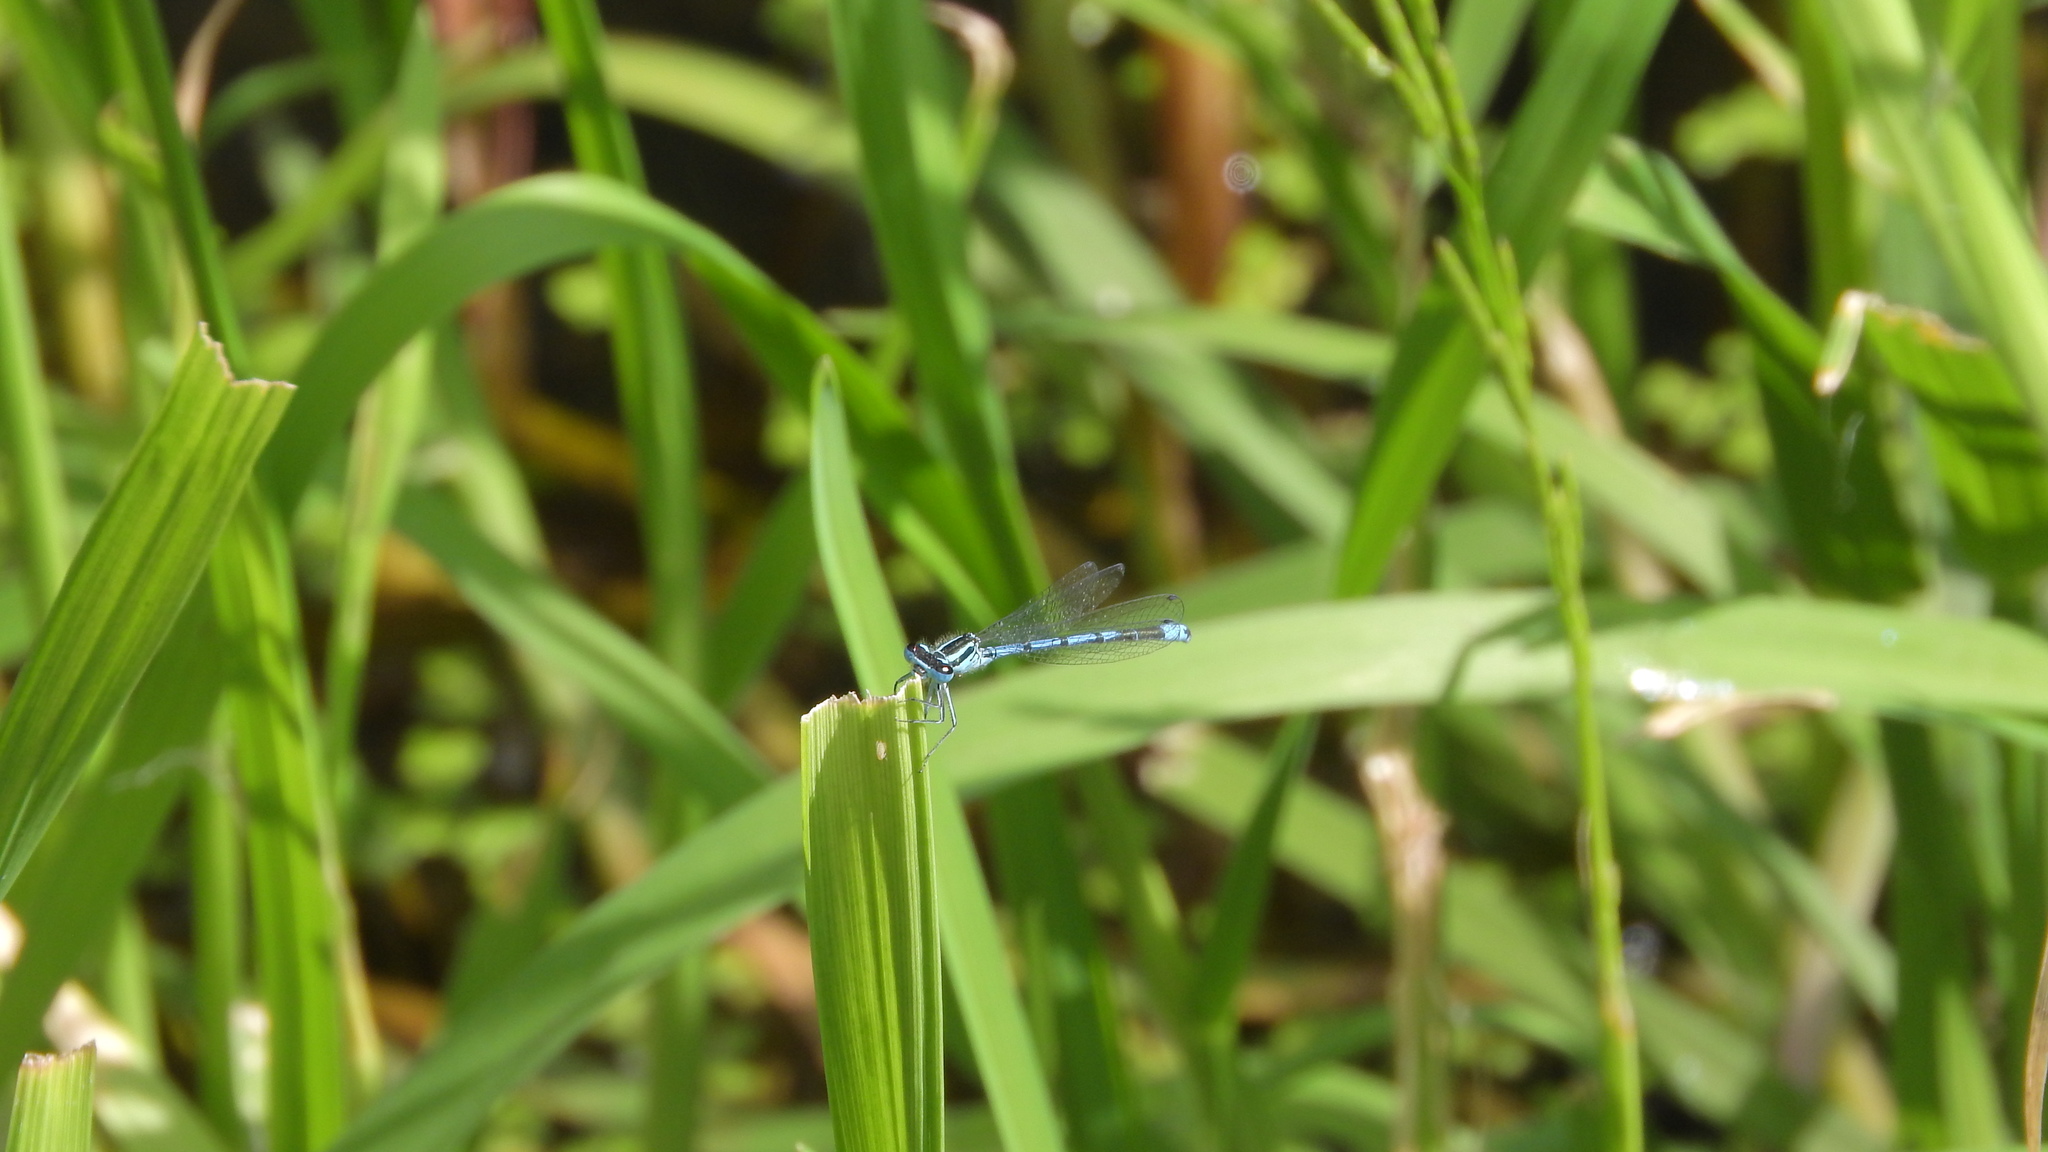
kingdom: Animalia
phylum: Arthropoda
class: Insecta
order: Odonata
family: Coenagrionidae
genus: Coenagrion
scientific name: Coenagrion puella
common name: Azure damselfly
